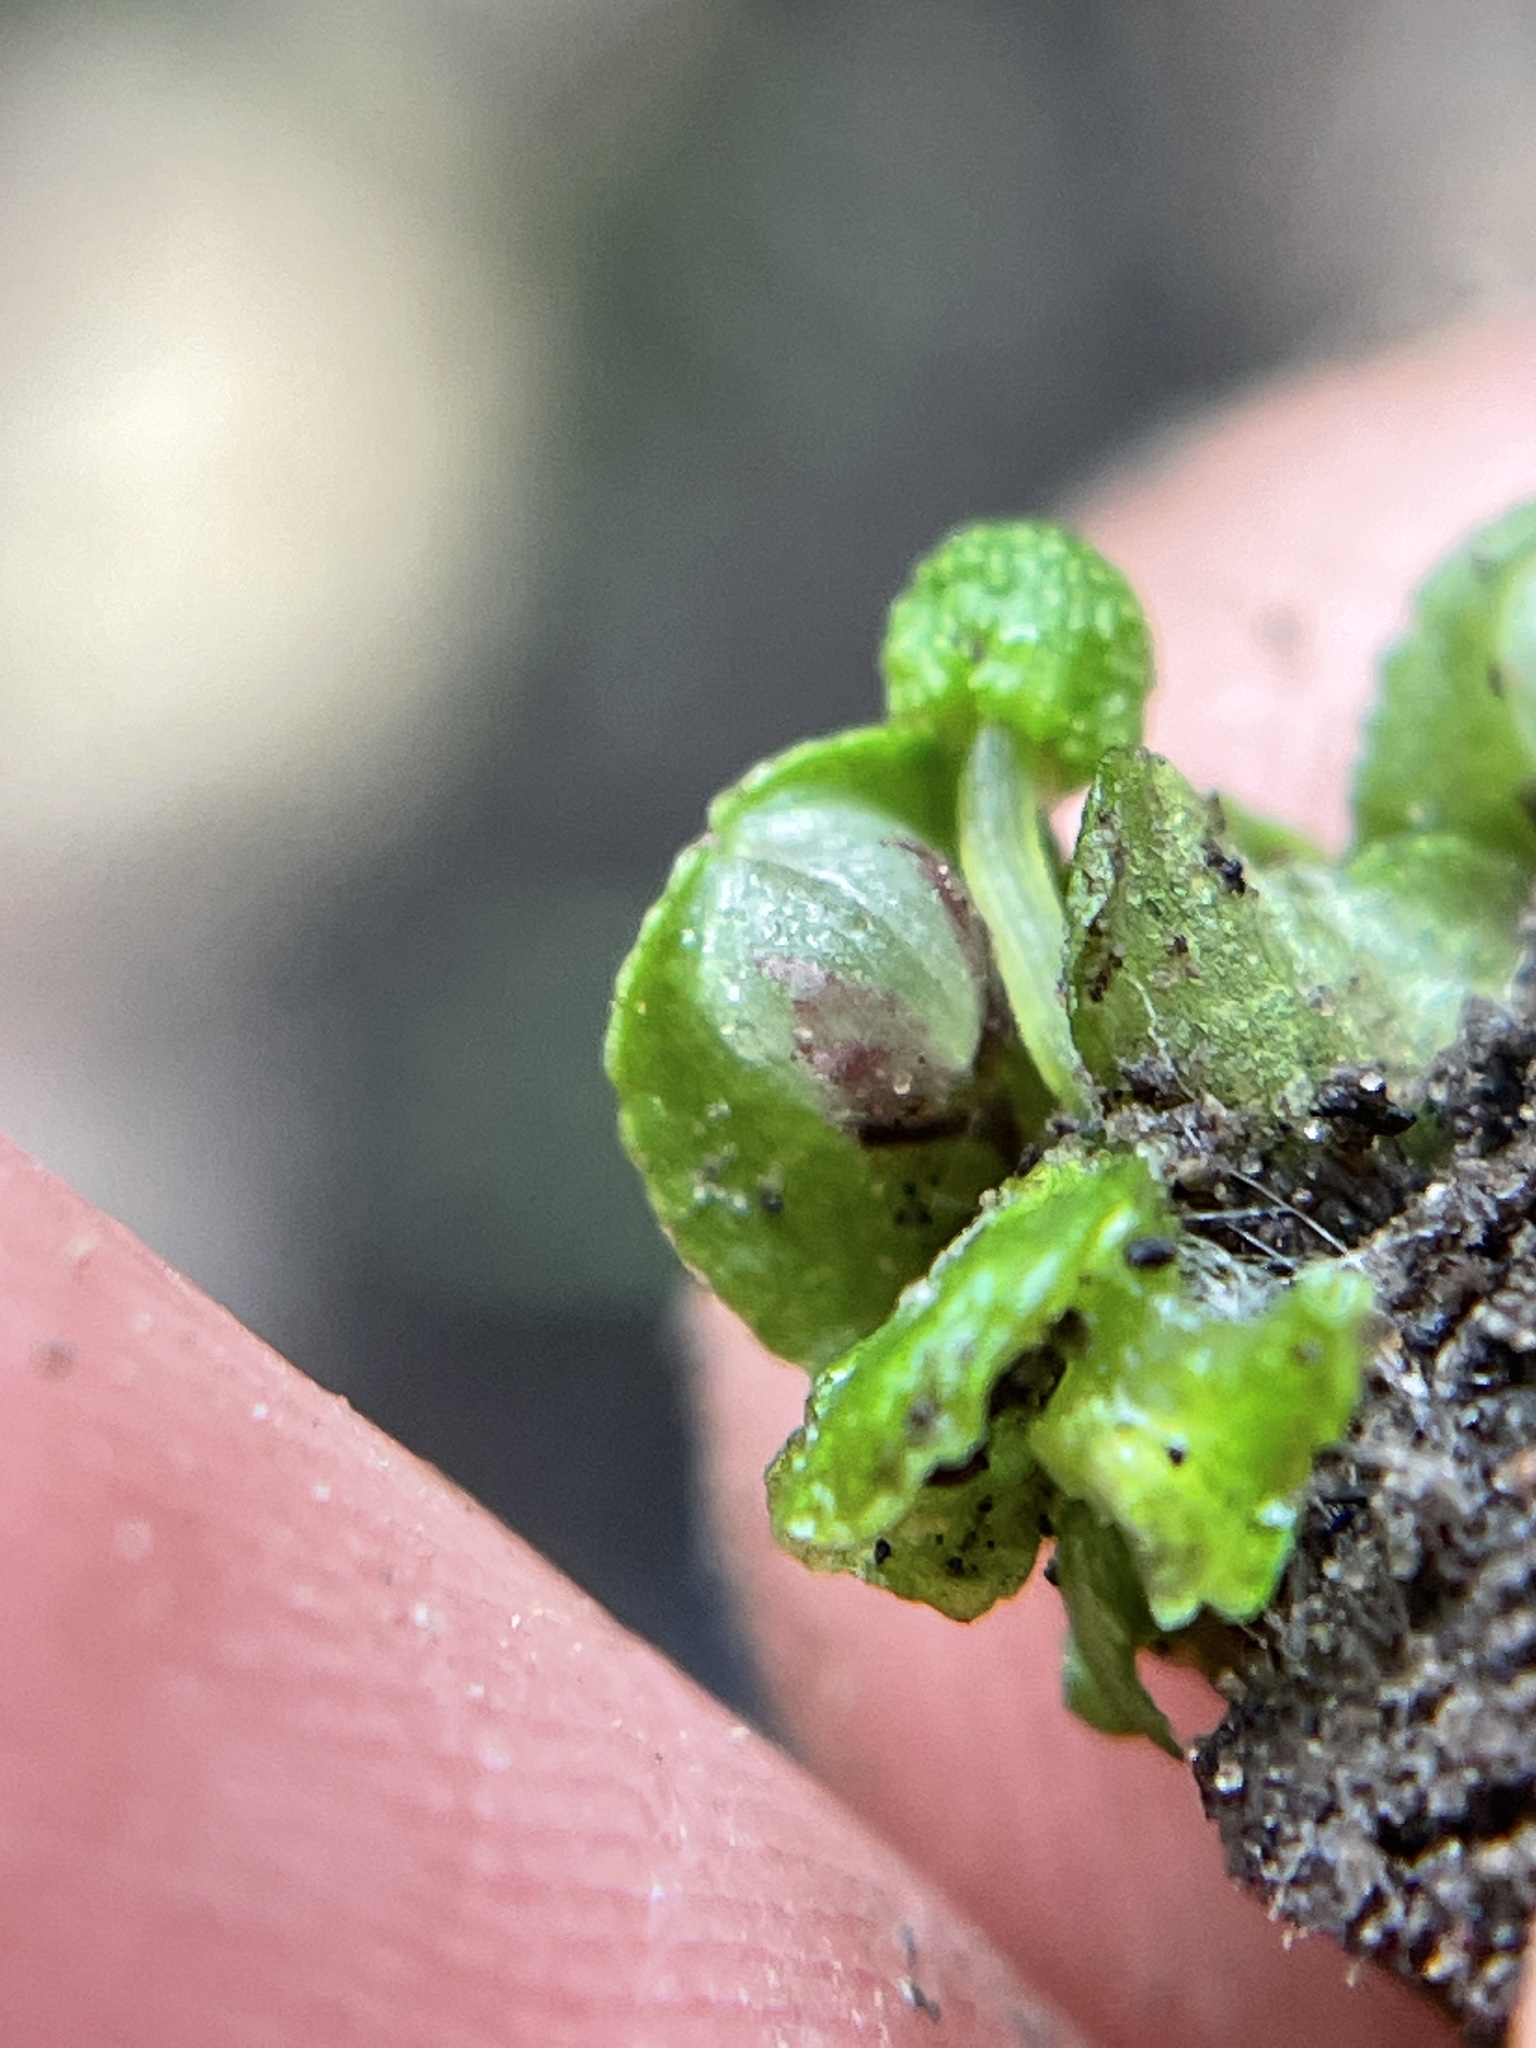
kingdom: Plantae
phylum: Marchantiophyta
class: Marchantiopsida
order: Marchantiales
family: Targioniaceae
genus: Targionia
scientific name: Targionia hypophylla
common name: Orobus-seed liverwort
